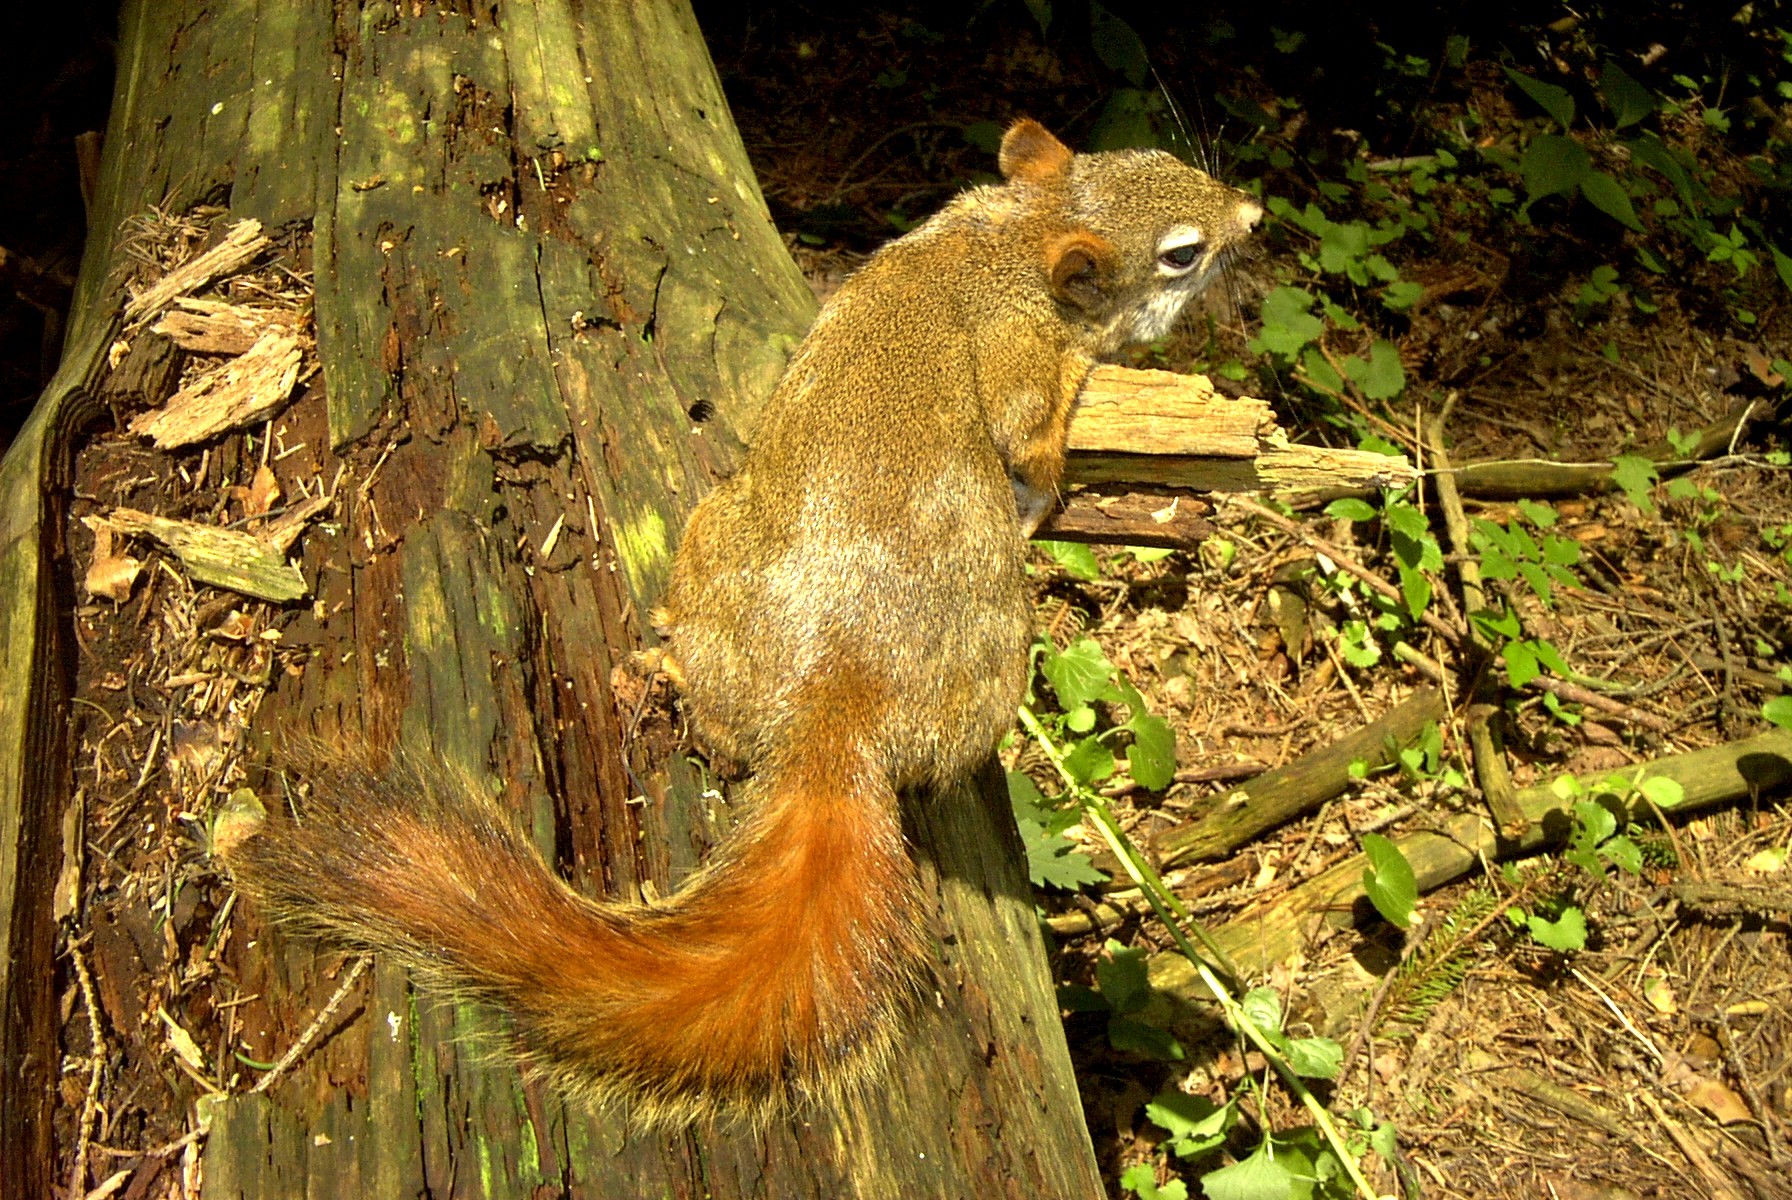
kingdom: Animalia
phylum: Chordata
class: Mammalia
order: Rodentia
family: Sciuridae
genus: Tamiasciurus
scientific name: Tamiasciurus hudsonicus
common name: Red squirrel
